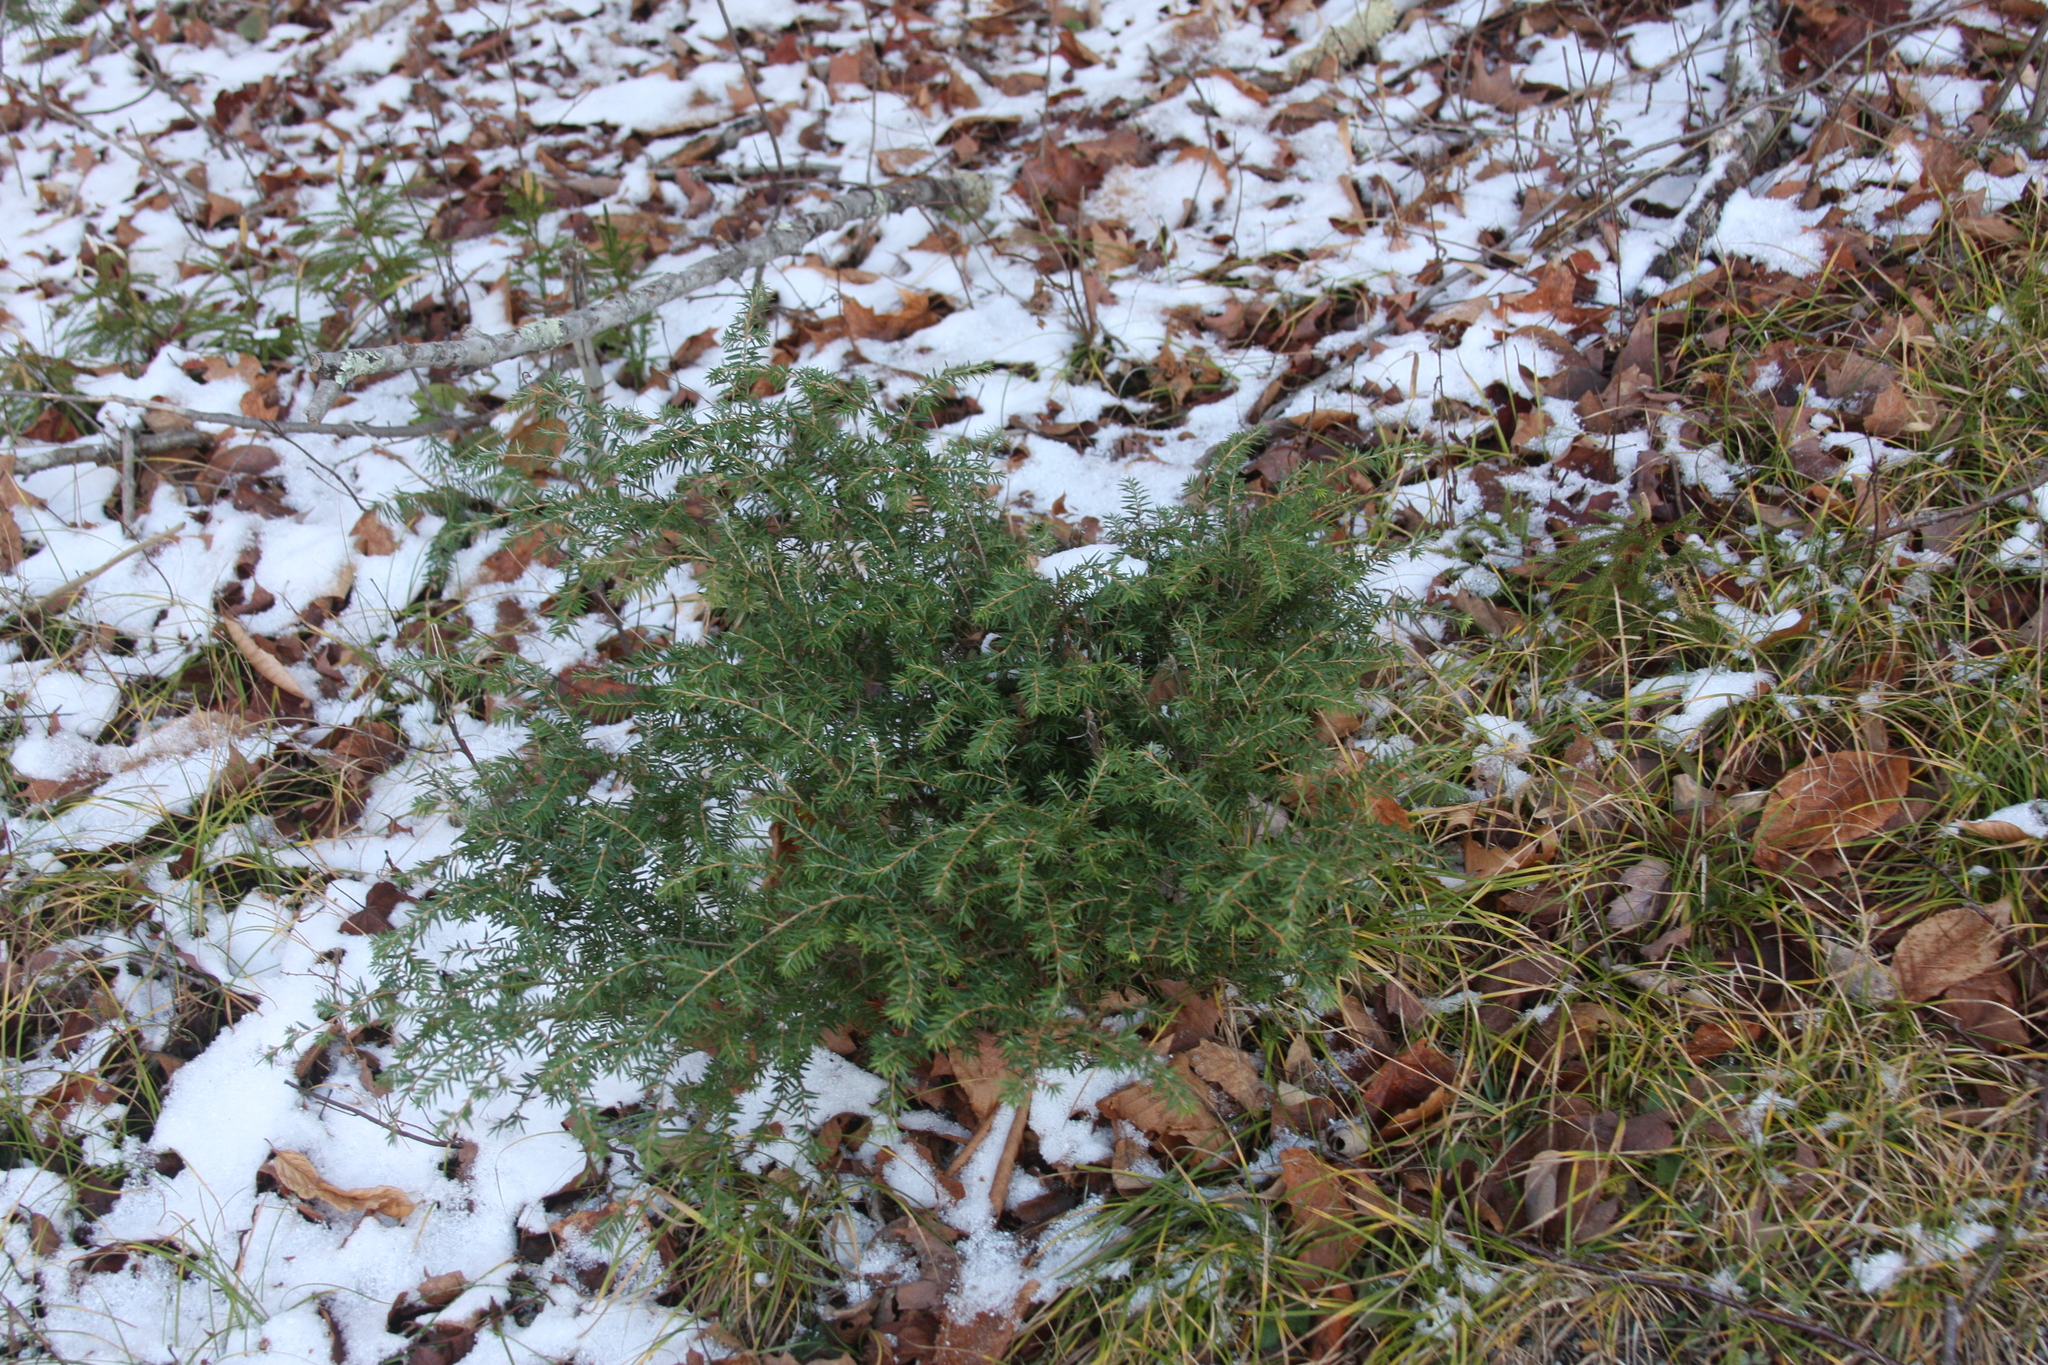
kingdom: Plantae
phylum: Tracheophyta
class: Pinopsida
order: Pinales
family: Pinaceae
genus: Tsuga
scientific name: Tsuga canadensis
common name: Eastern hemlock
